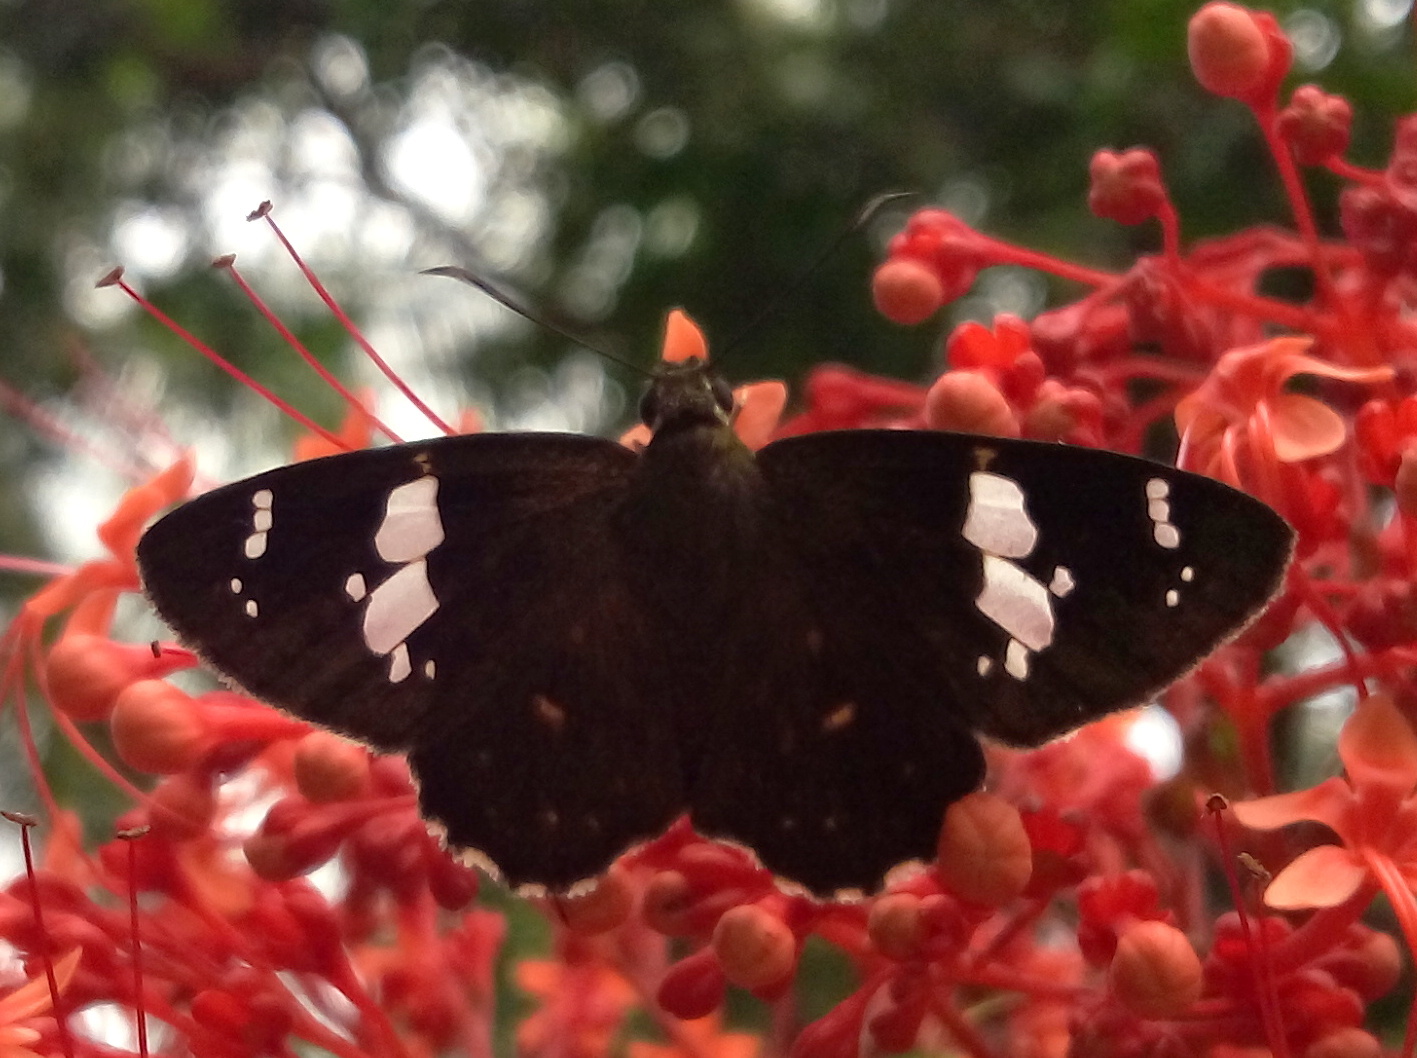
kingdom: Animalia
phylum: Arthropoda
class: Insecta
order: Lepidoptera
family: Hesperiidae
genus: Celaenorrhinus
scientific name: Celaenorrhinus
